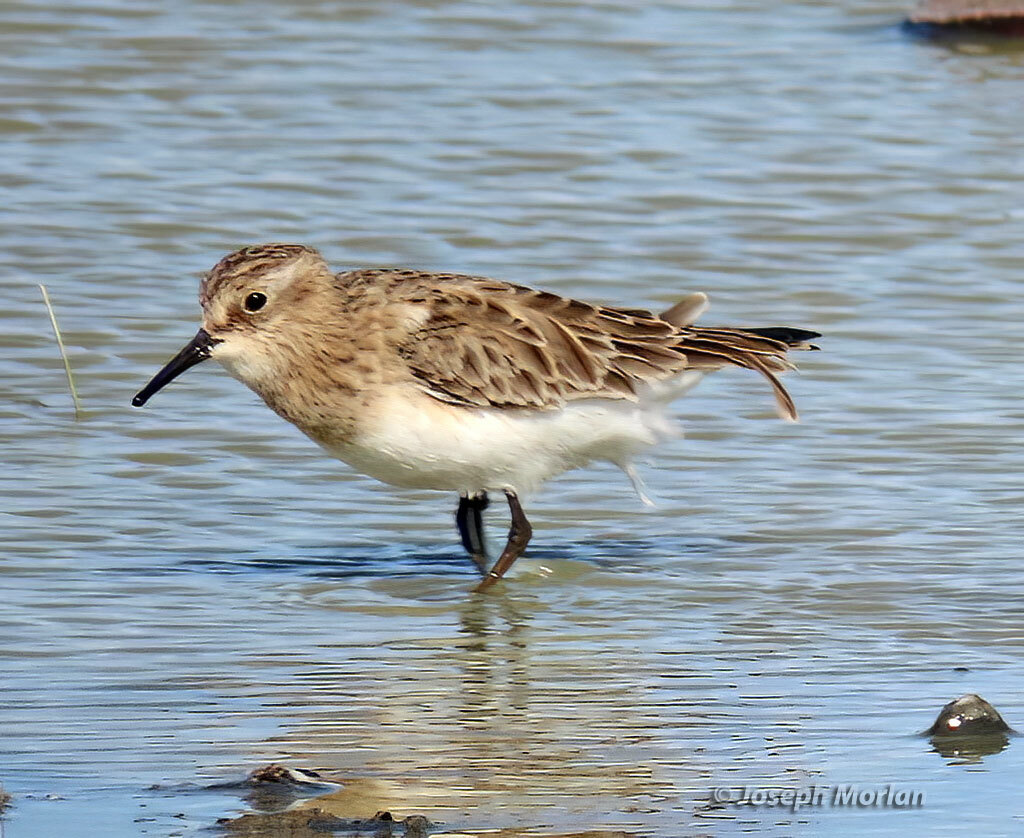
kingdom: Animalia
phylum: Chordata
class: Aves
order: Charadriiformes
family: Scolopacidae
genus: Calidris
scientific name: Calidris bairdii
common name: Baird's sandpiper
